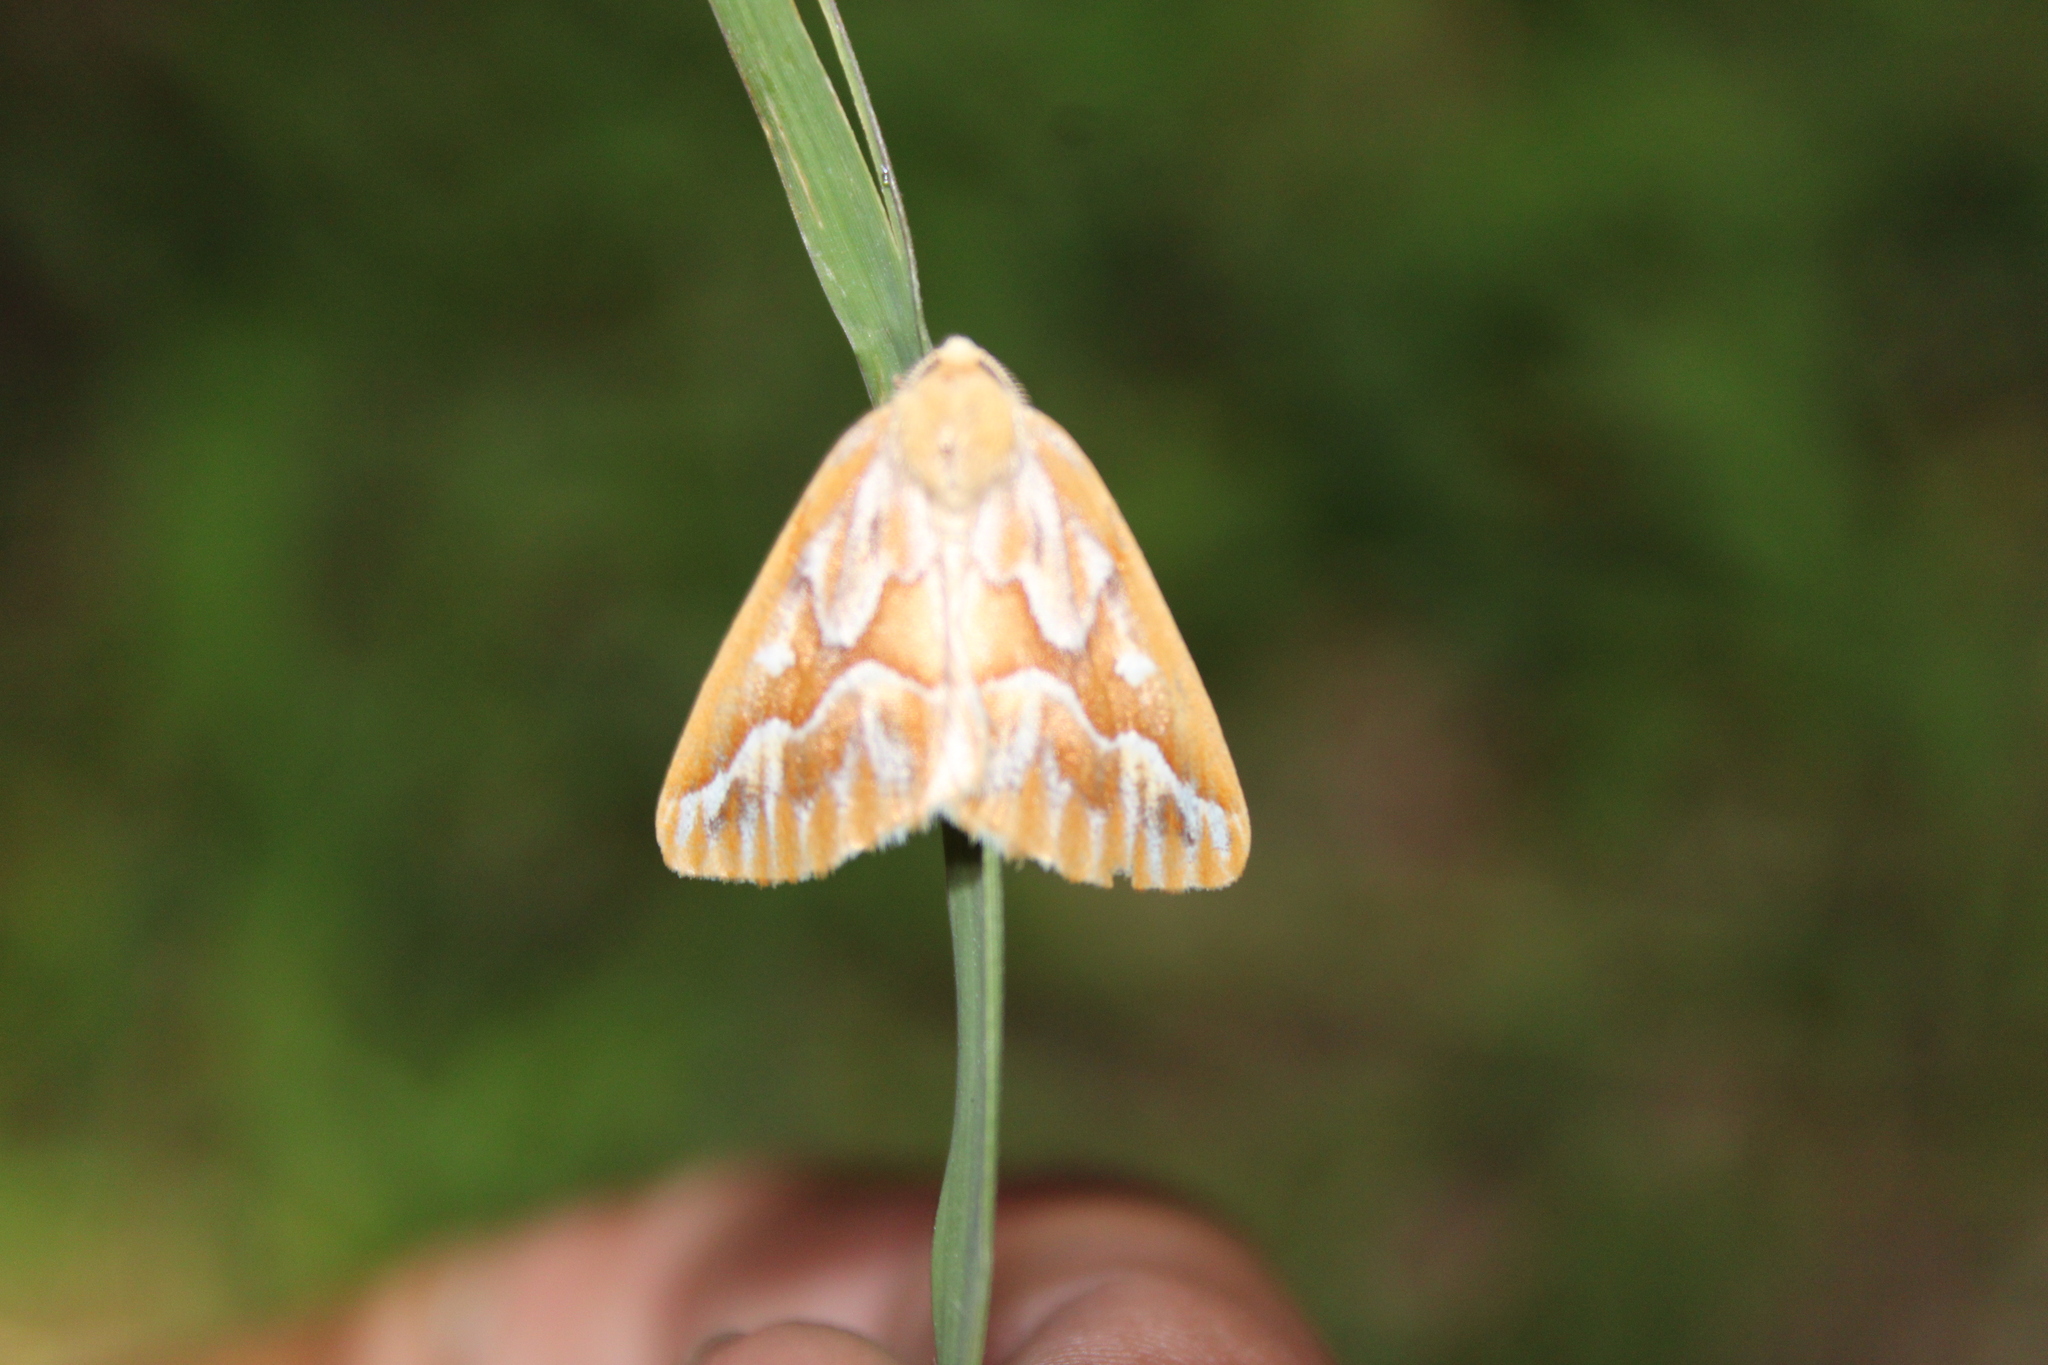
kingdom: Animalia
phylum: Arthropoda
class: Insecta
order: Lepidoptera
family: Geometridae
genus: Caripeta
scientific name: Caripeta piniata
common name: Northern pine looper moth
